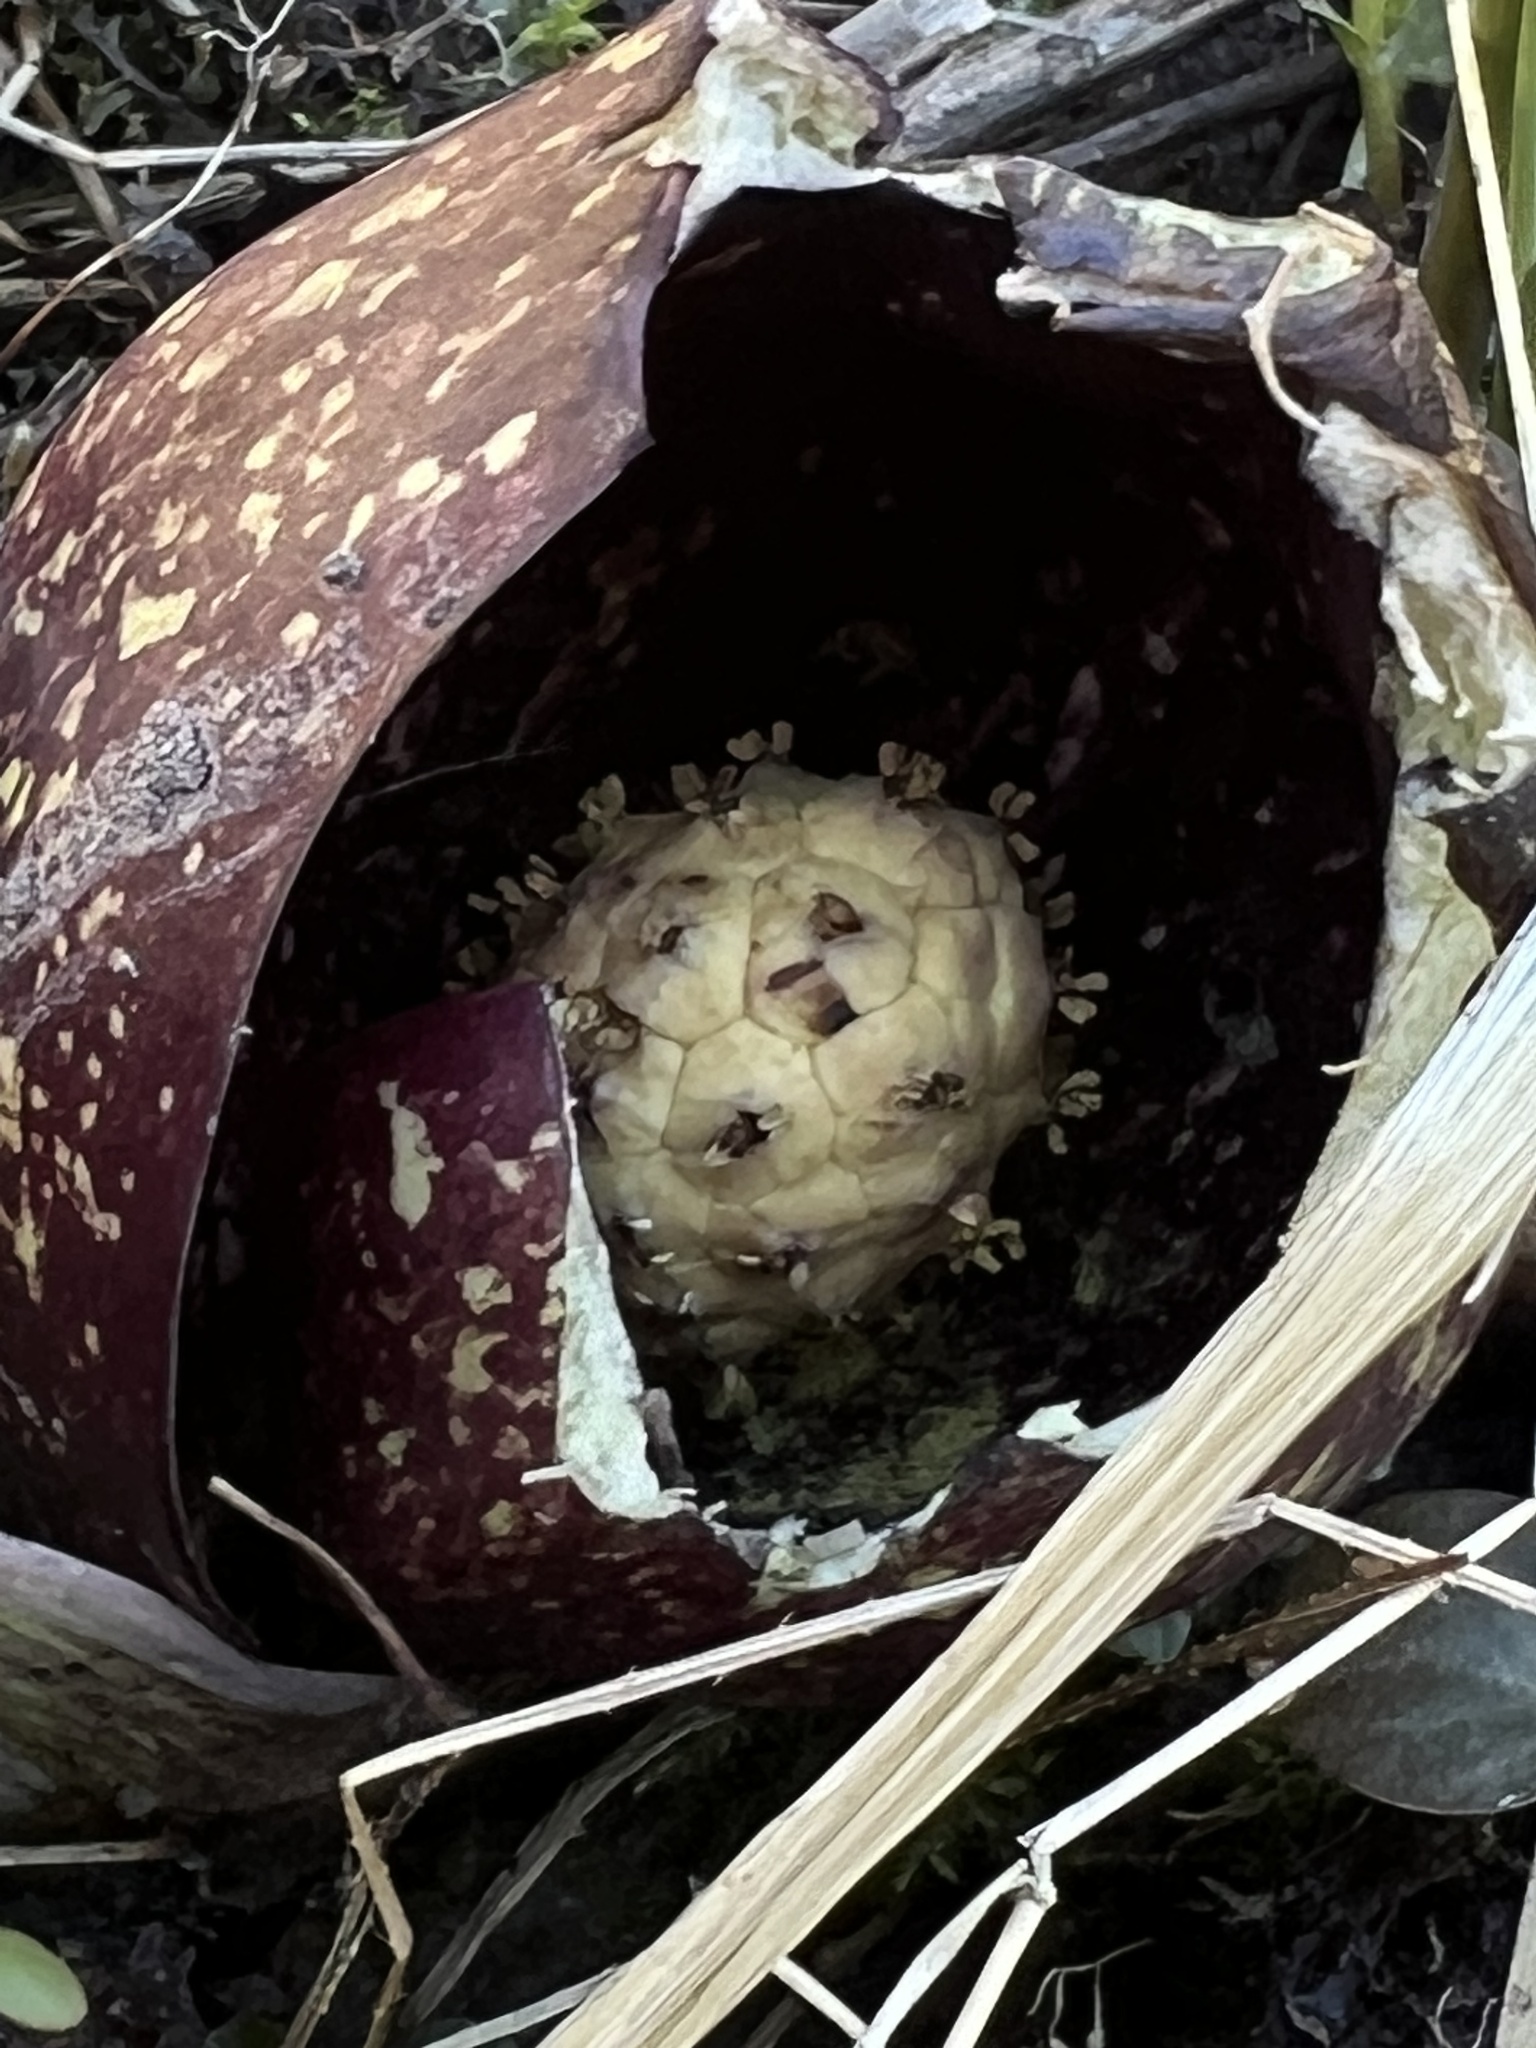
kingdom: Plantae
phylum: Tracheophyta
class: Liliopsida
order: Alismatales
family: Araceae
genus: Symplocarpus
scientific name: Symplocarpus foetidus
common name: Eastern skunk cabbage
